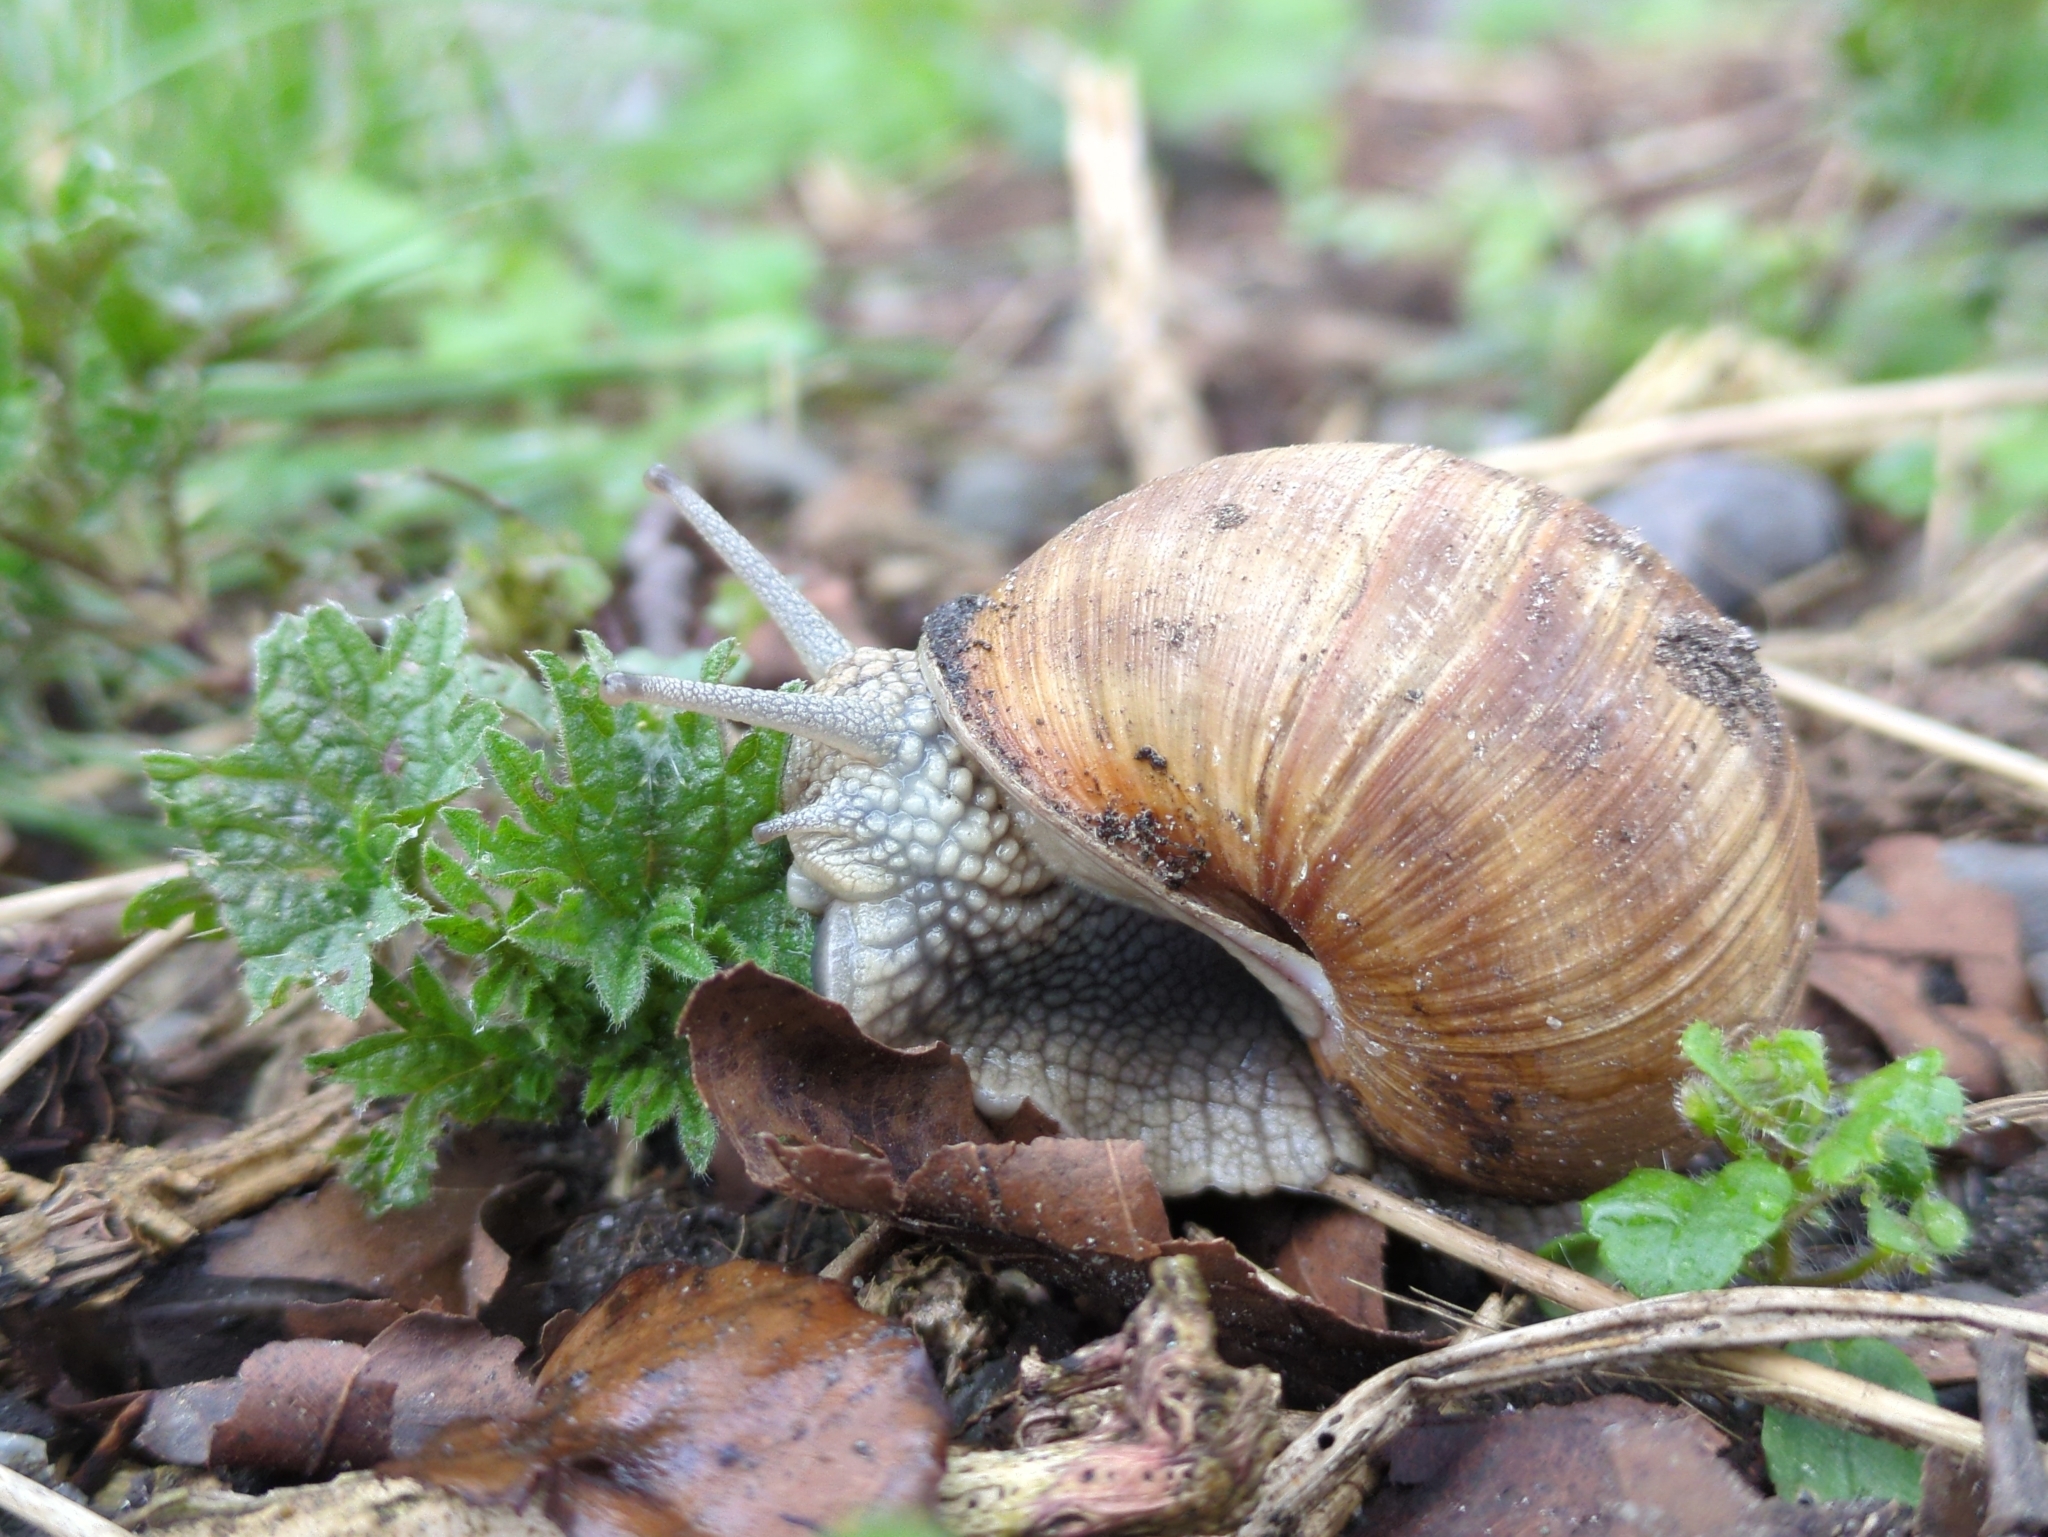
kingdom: Animalia
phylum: Mollusca
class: Gastropoda
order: Stylommatophora
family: Helicidae
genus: Helix
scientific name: Helix pomatia
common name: Roman snail
